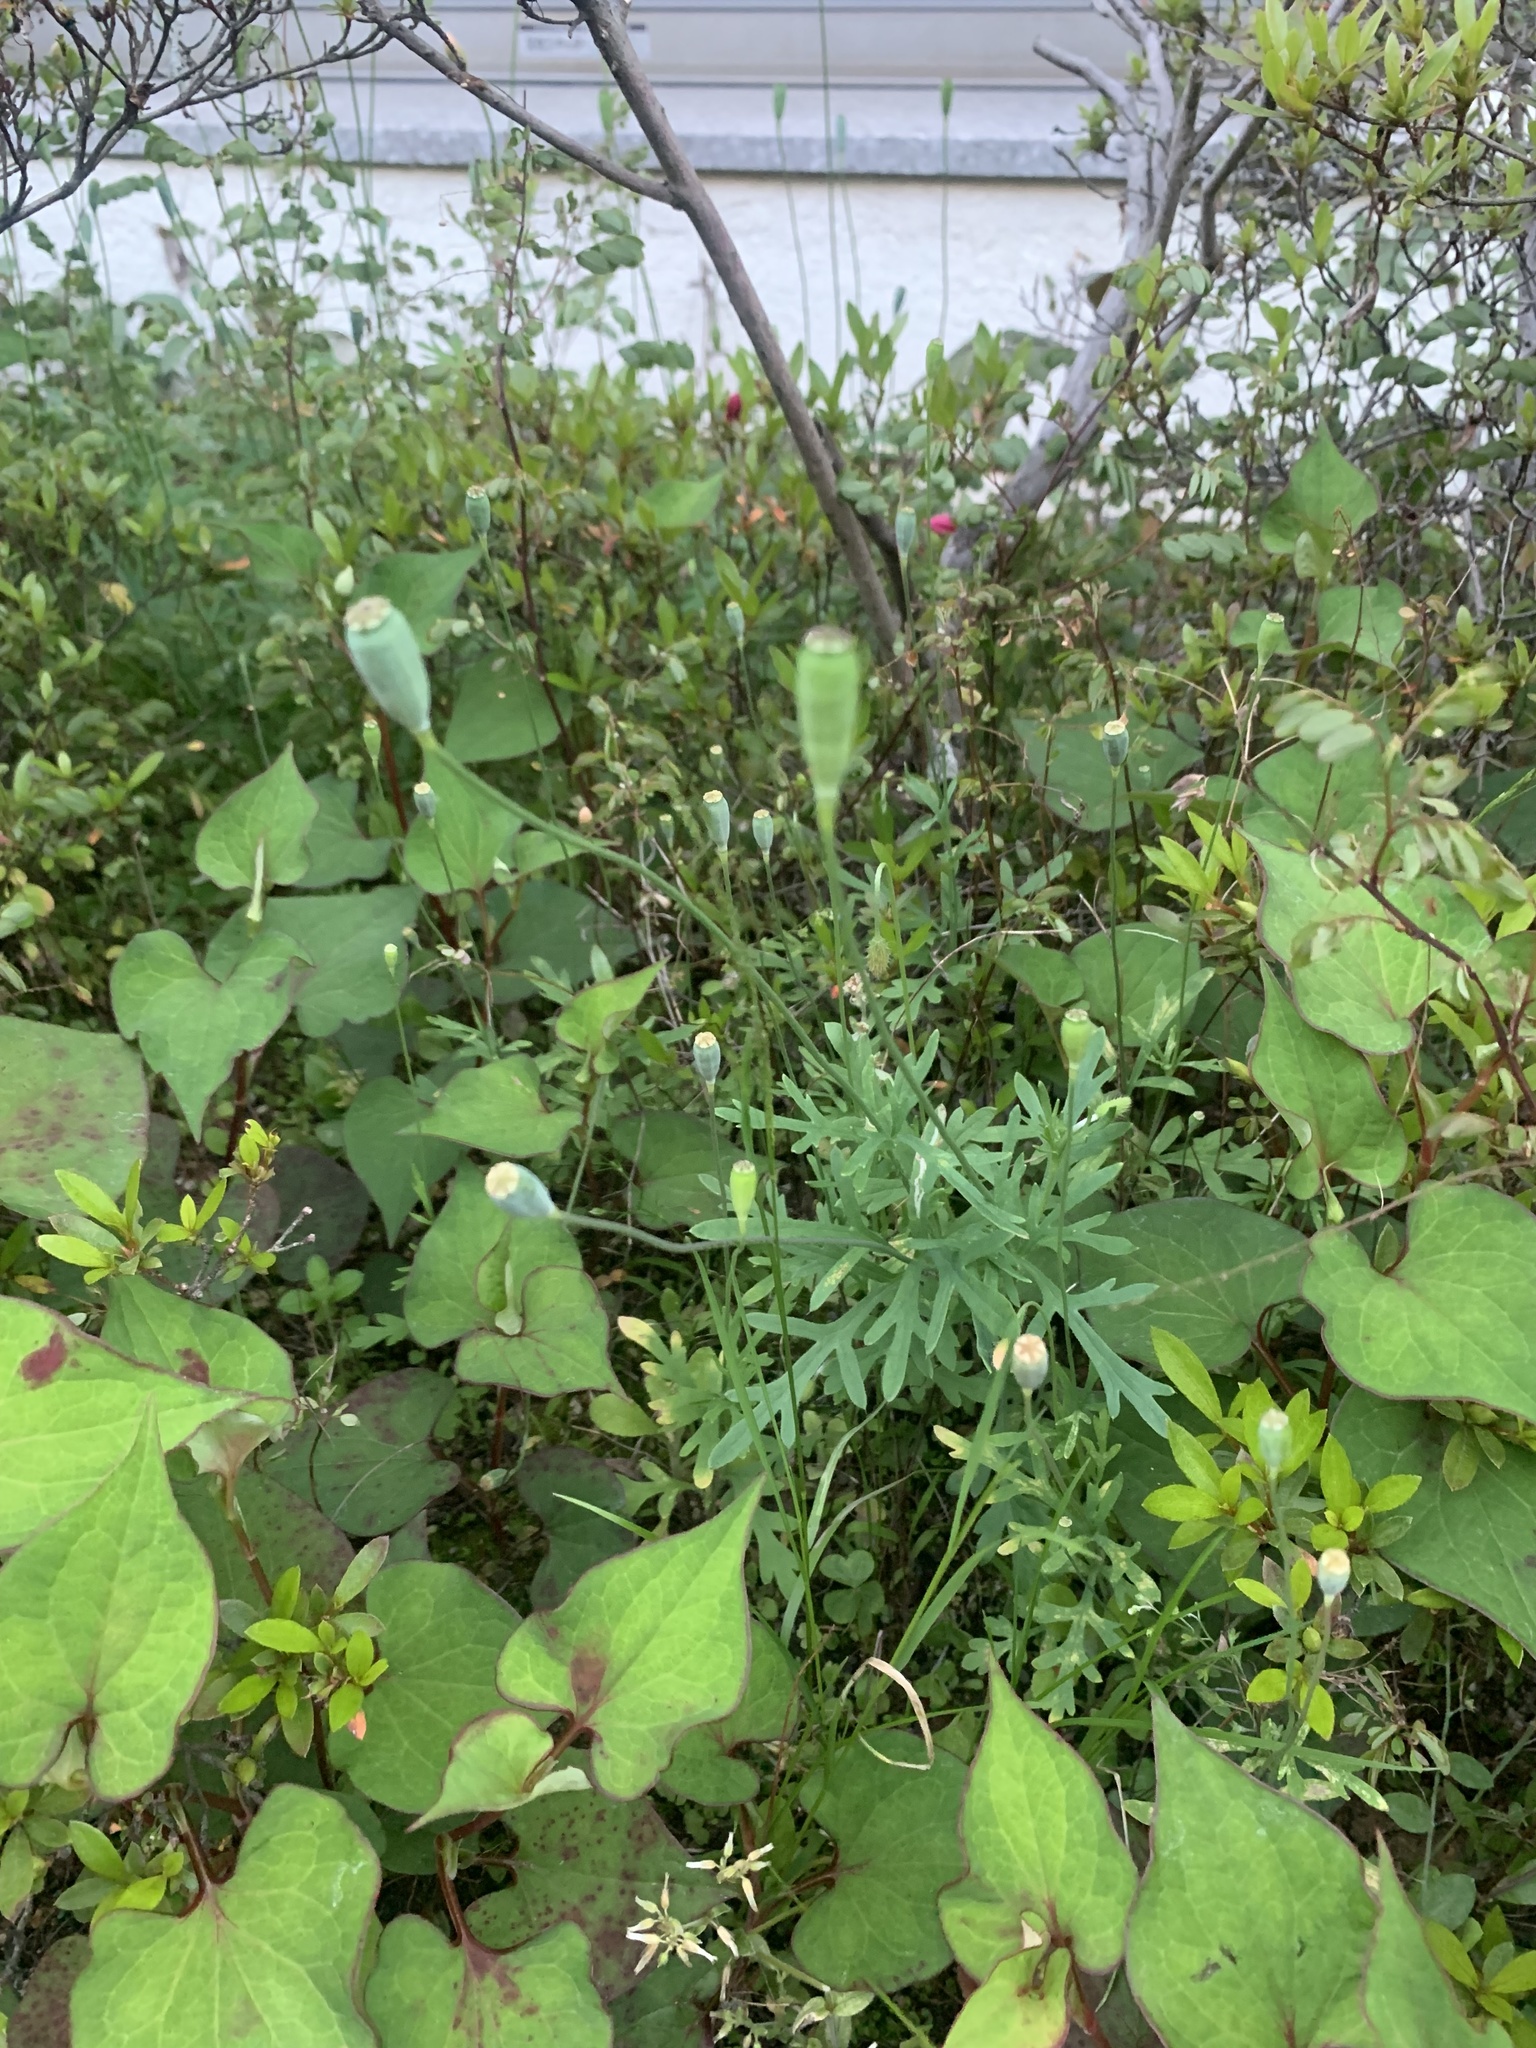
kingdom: Plantae
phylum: Tracheophyta
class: Magnoliopsida
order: Ranunculales
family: Papaveraceae
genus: Papaver
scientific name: Papaver dubium
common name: Long-headed poppy
